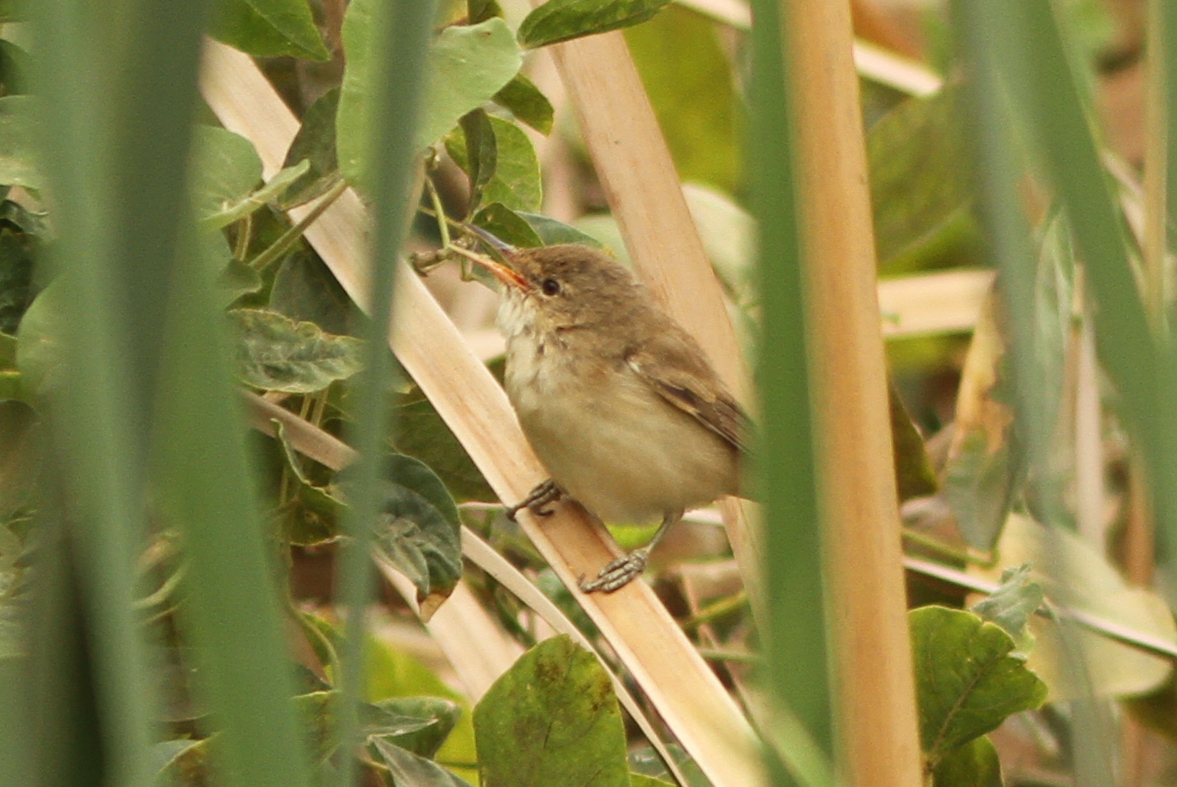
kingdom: Animalia
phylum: Chordata
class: Aves
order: Passeriformes
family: Acrocephalidae
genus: Acrocephalus
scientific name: Acrocephalus scirpaceus
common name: Eurasian reed warbler
